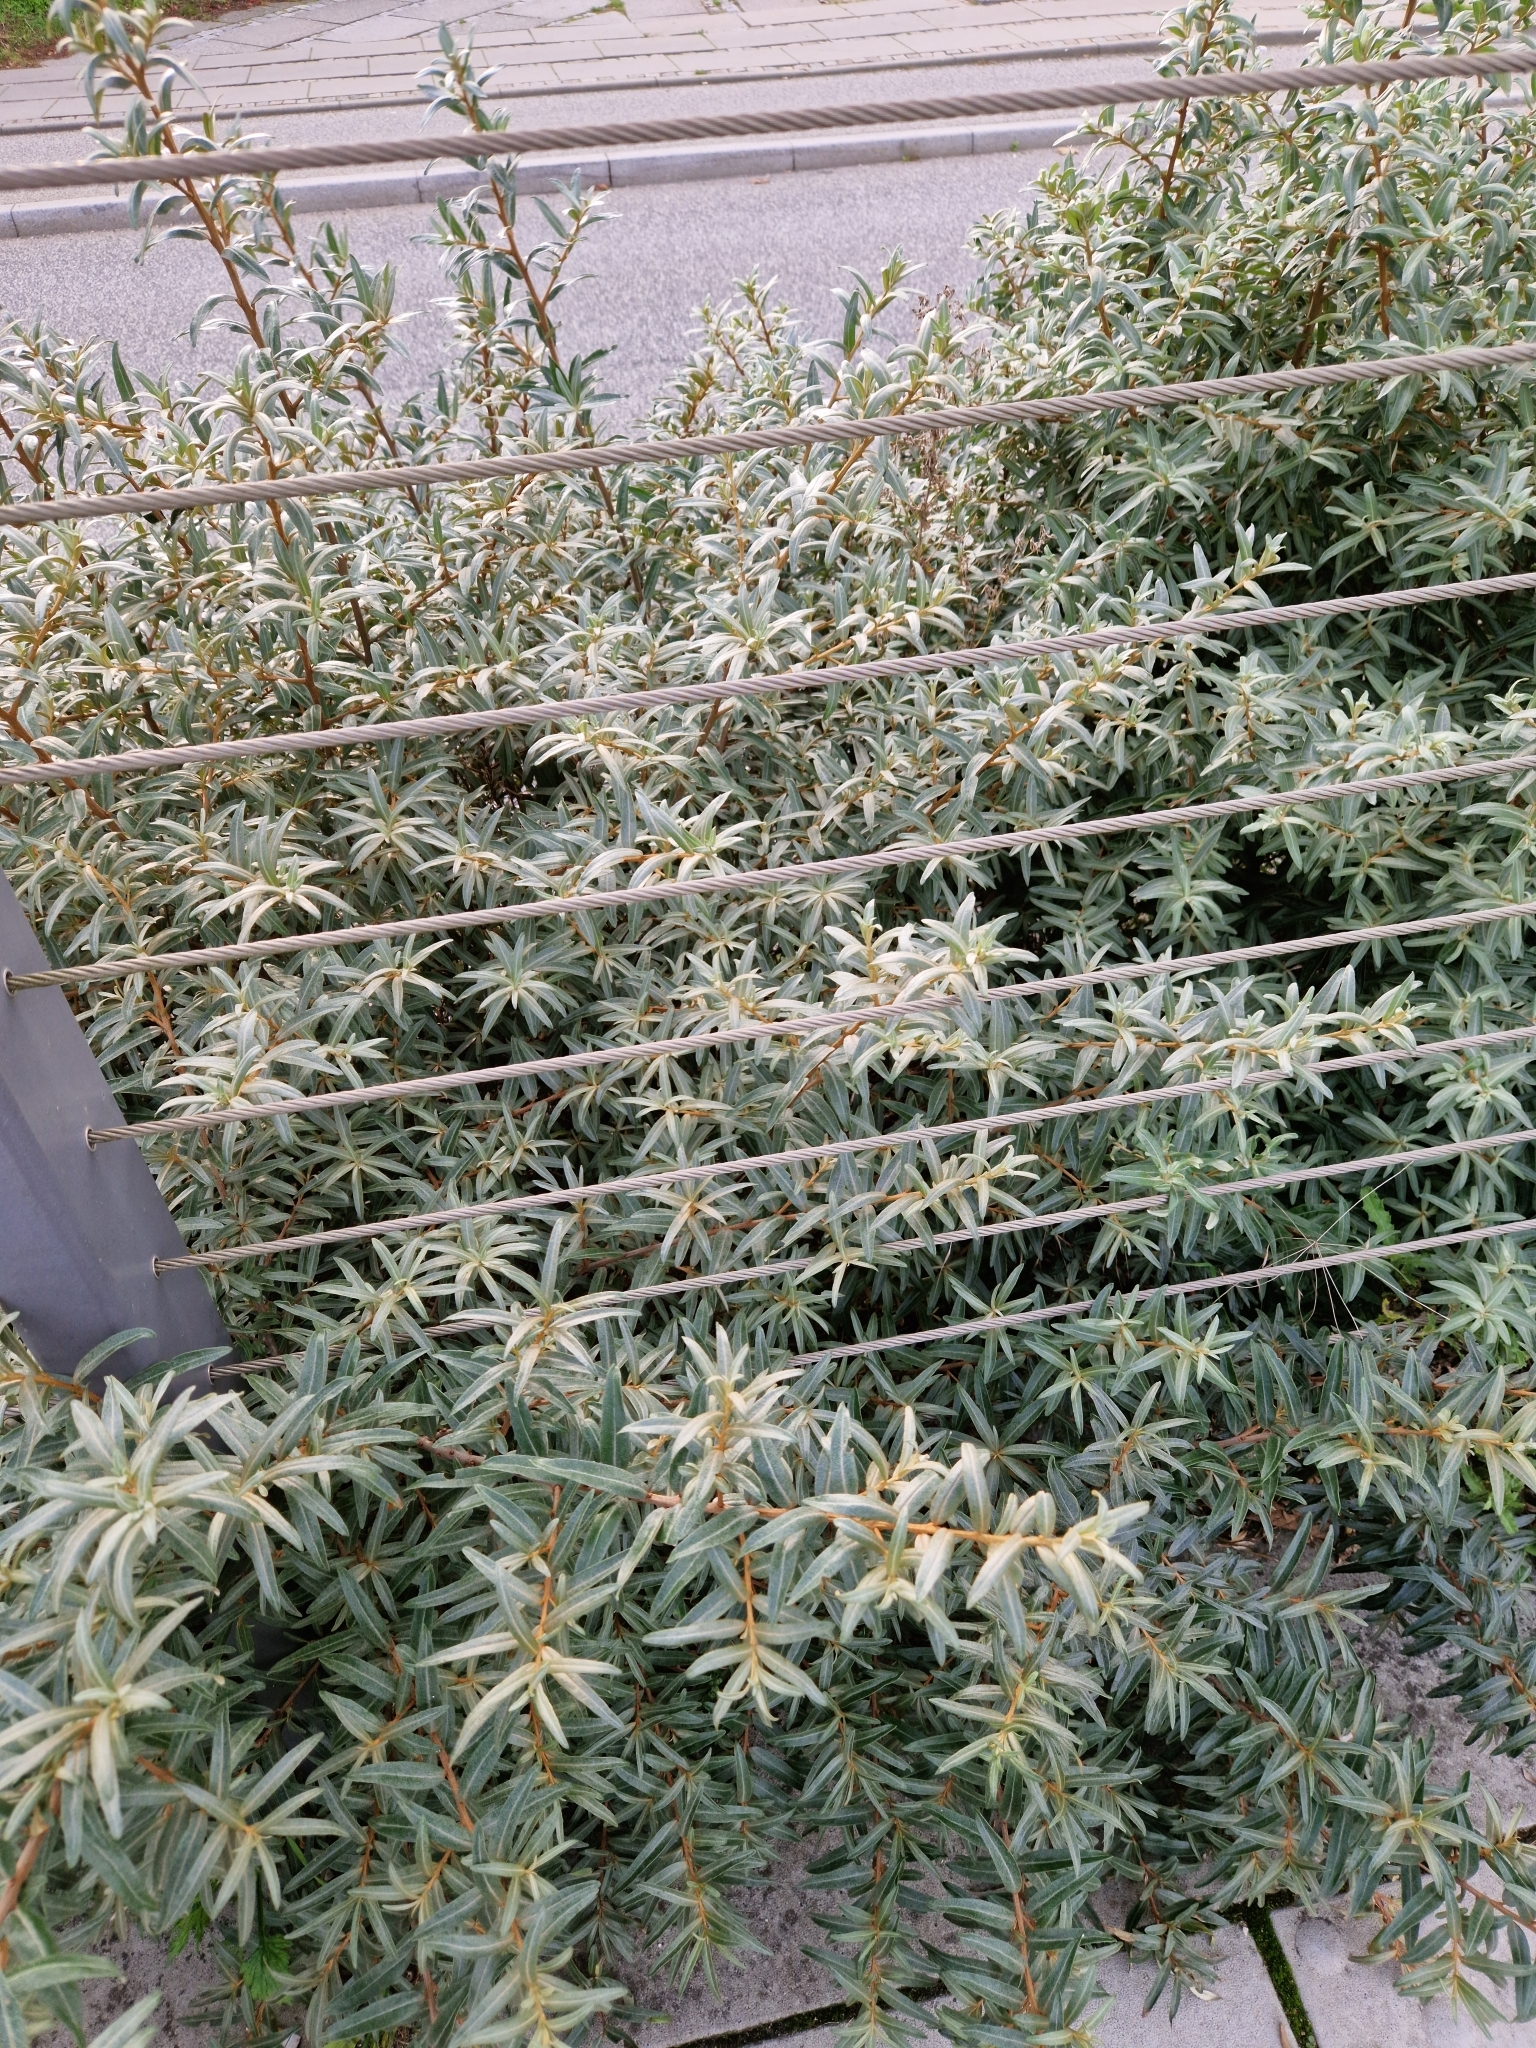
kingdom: Plantae
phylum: Tracheophyta
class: Magnoliopsida
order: Rosales
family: Elaeagnaceae
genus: Hippophae
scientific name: Hippophae rhamnoides
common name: Sea-buckthorn
